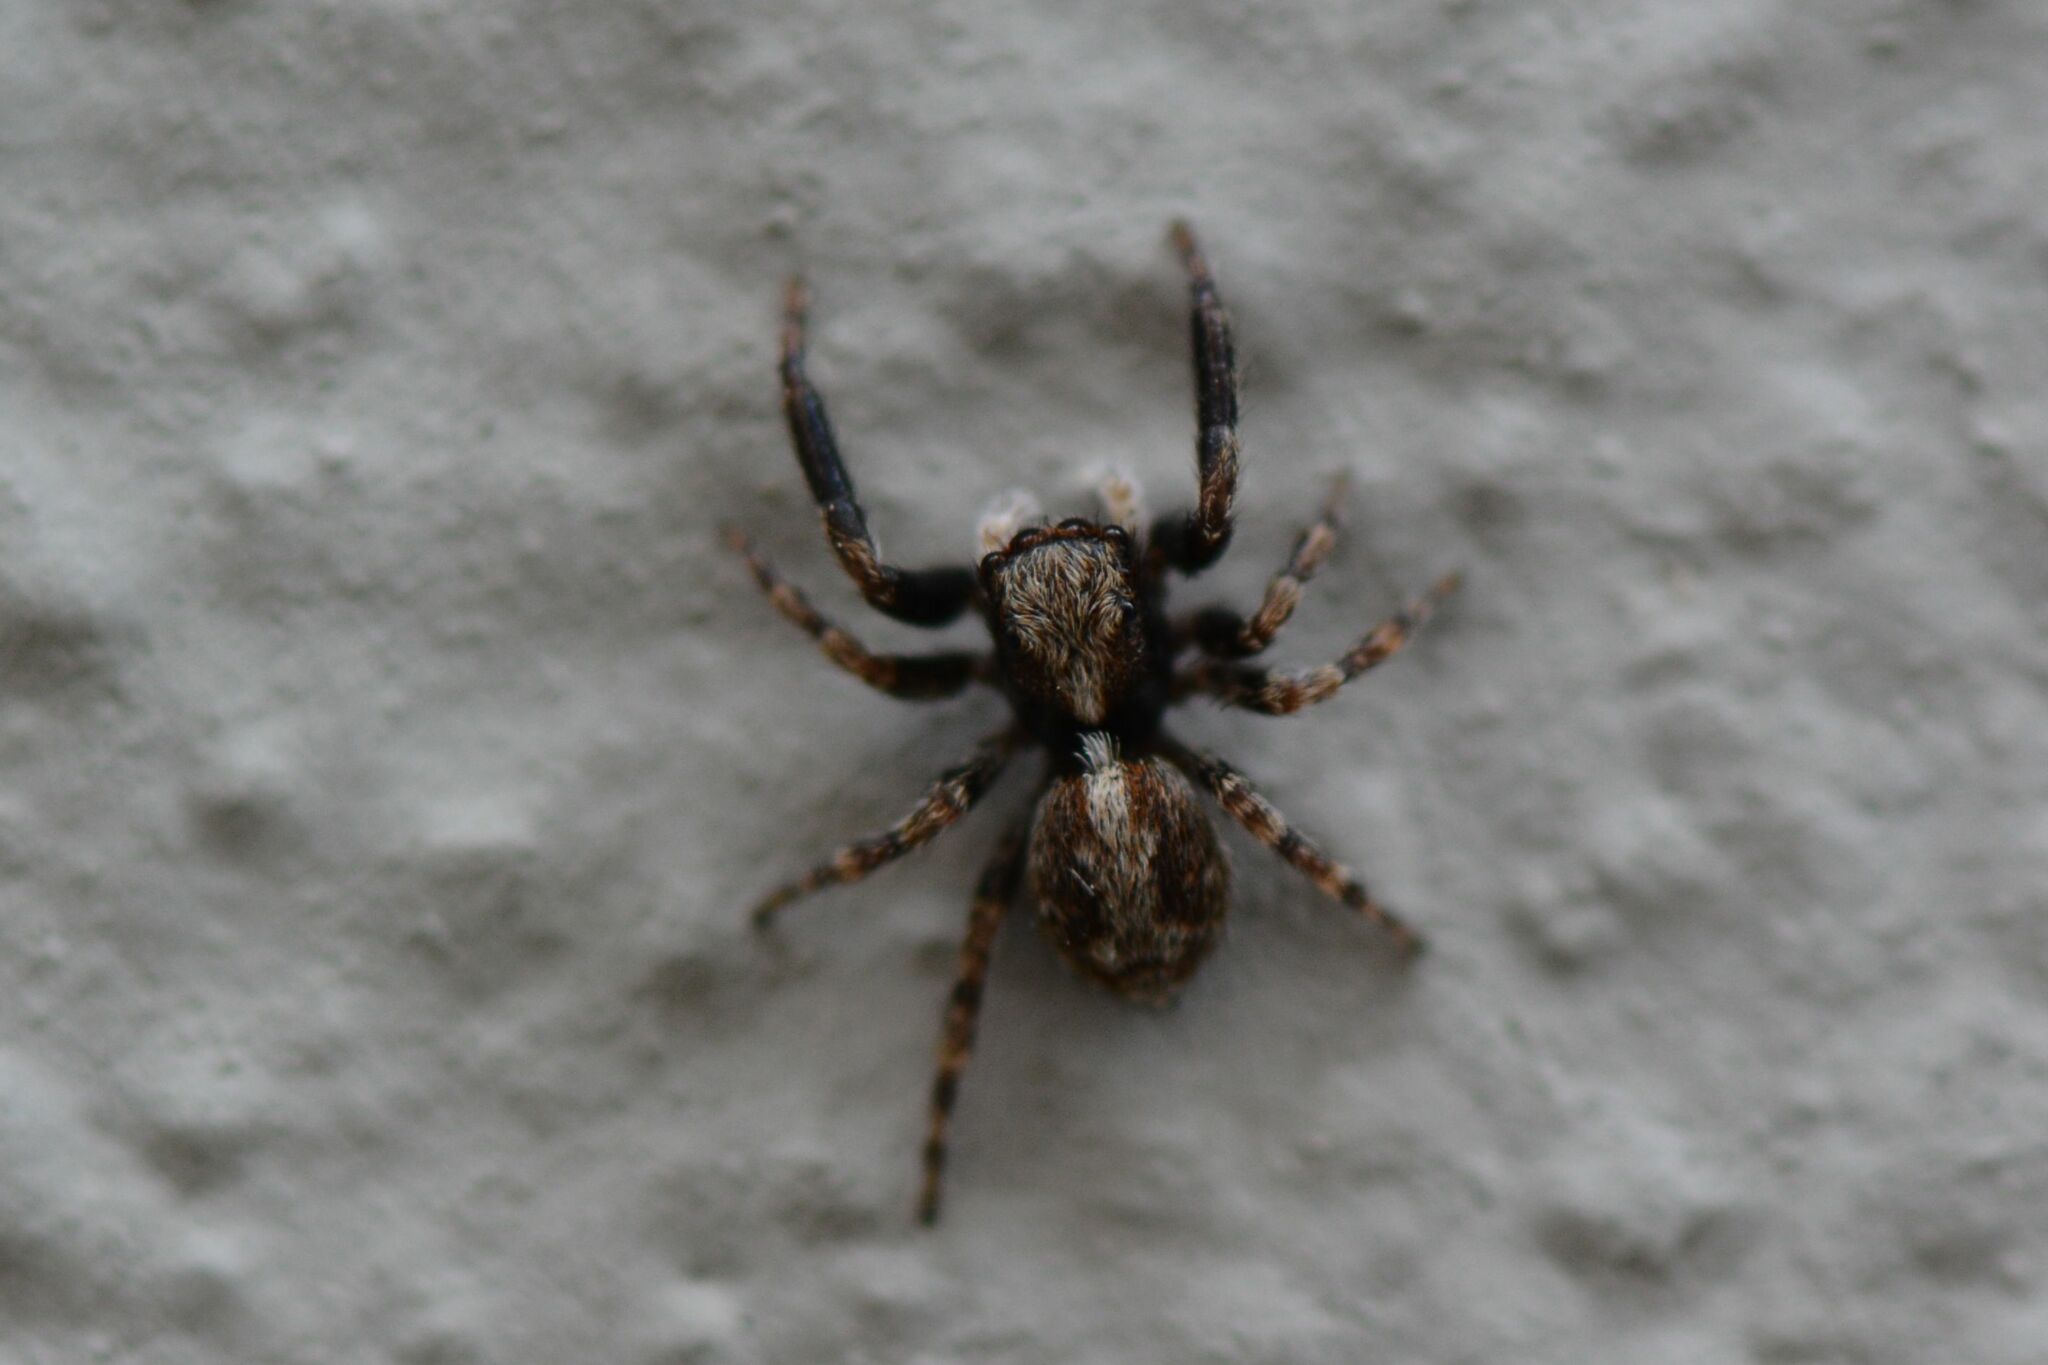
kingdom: Animalia
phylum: Arthropoda
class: Arachnida
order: Araneae
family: Salticidae
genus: Pseudeuophrys
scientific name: Pseudeuophrys lanigera
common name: Jumping spider
